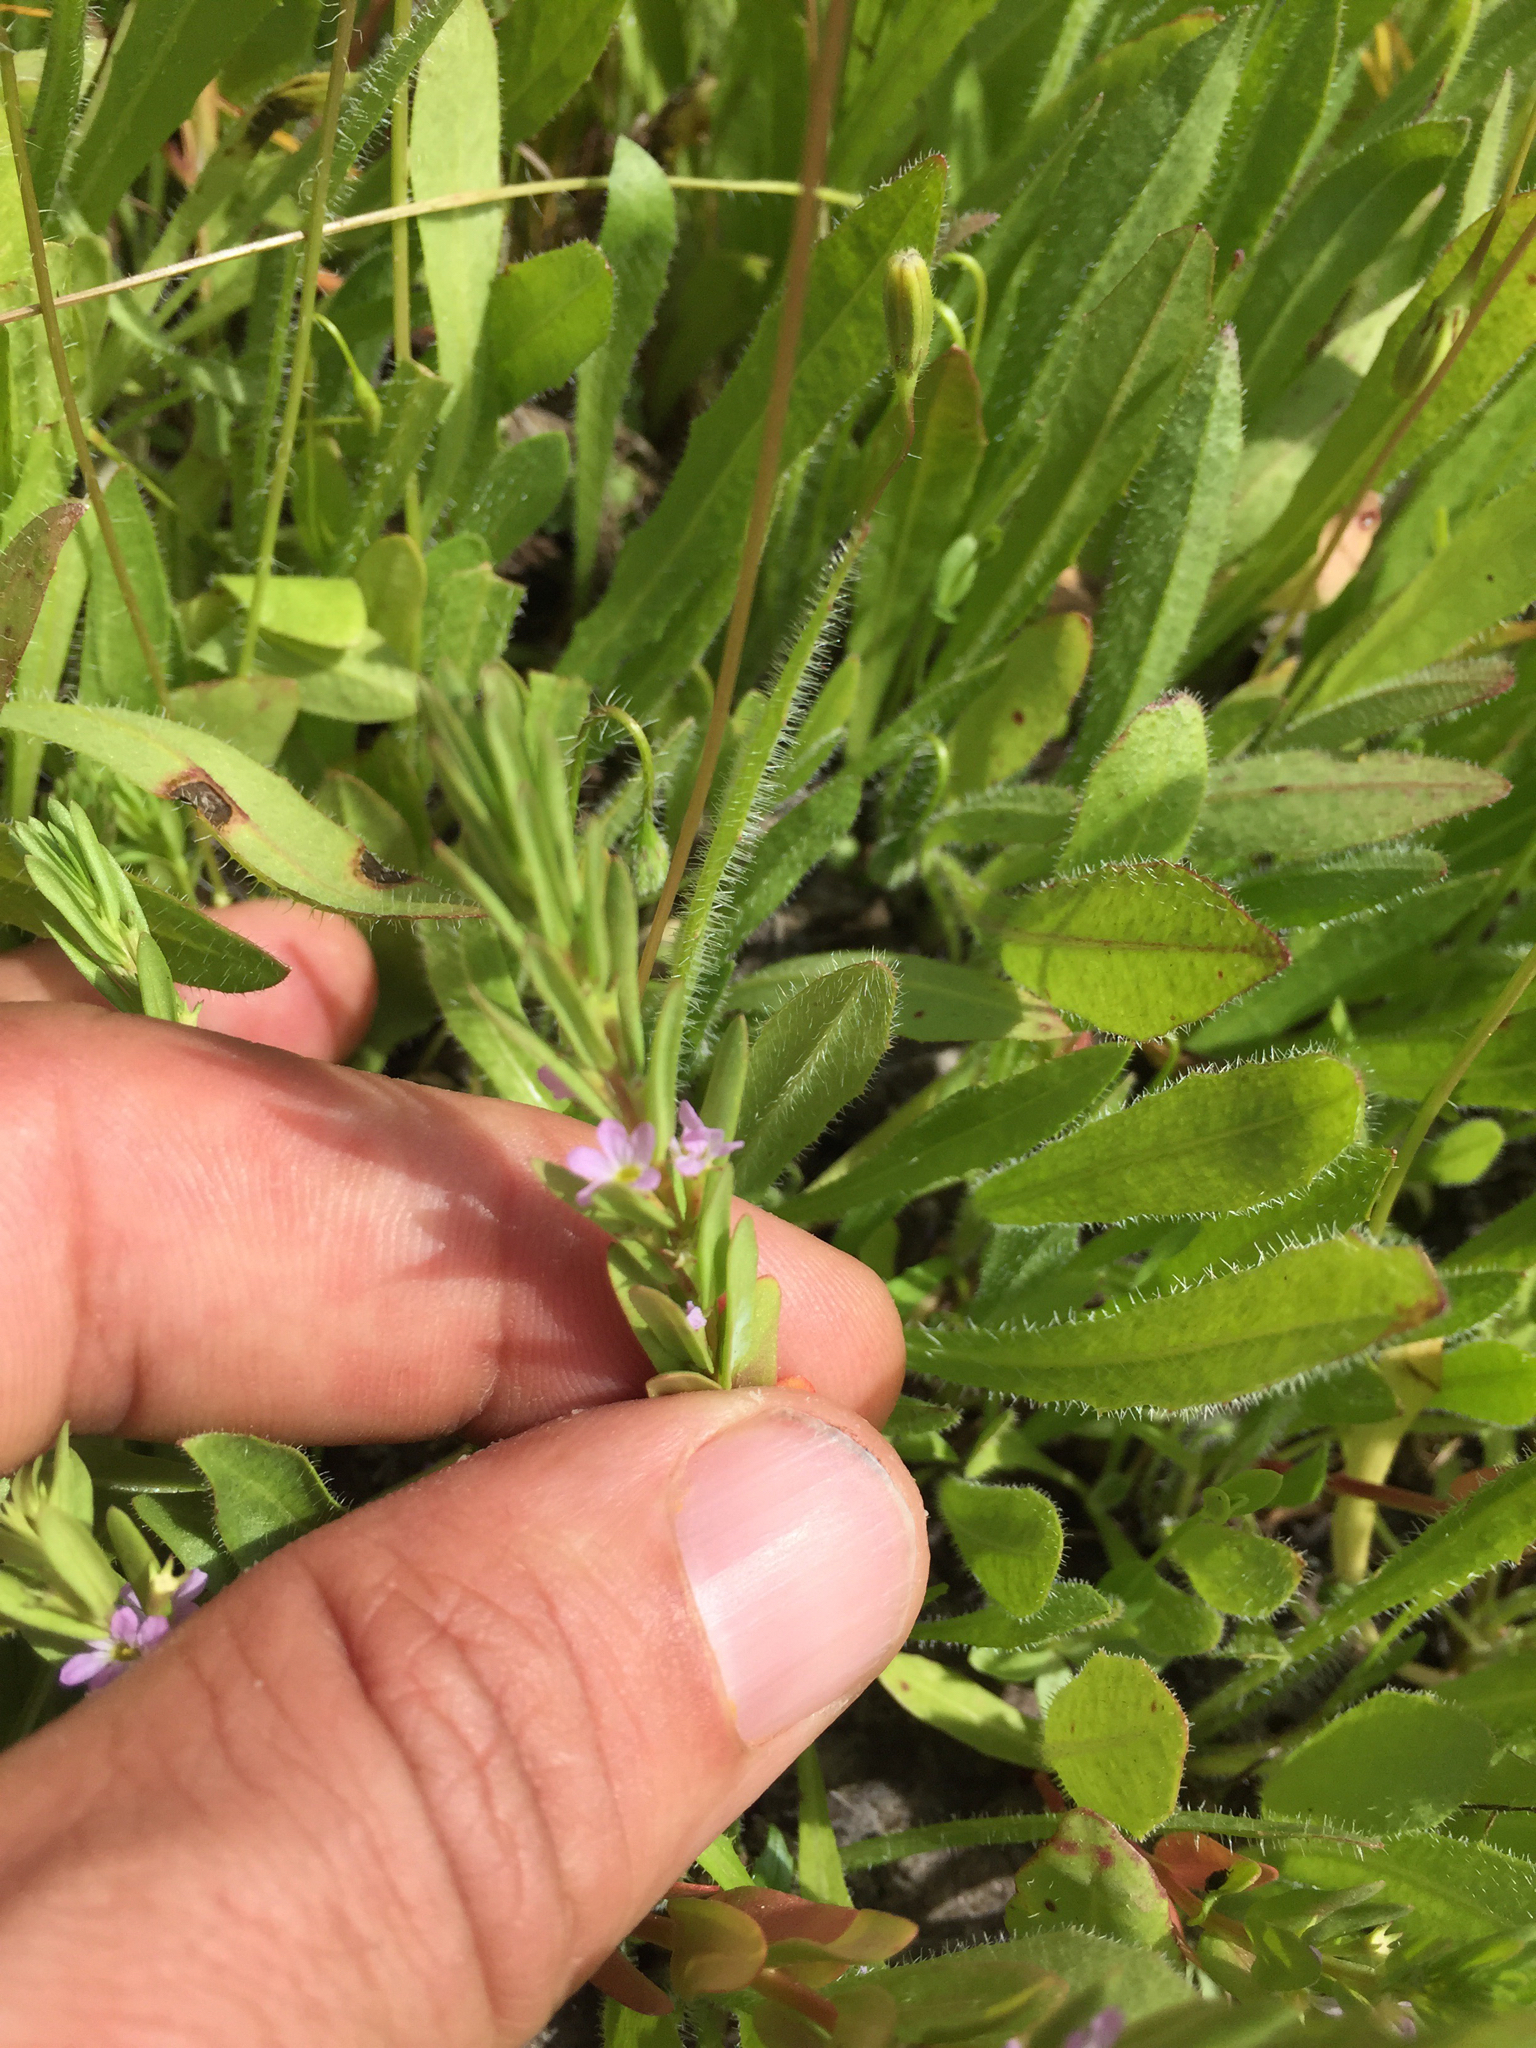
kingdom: Plantae
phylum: Tracheophyta
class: Magnoliopsida
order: Myrtales
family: Lythraceae
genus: Lythrum
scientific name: Lythrum hyssopifolia
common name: Grass-poly
